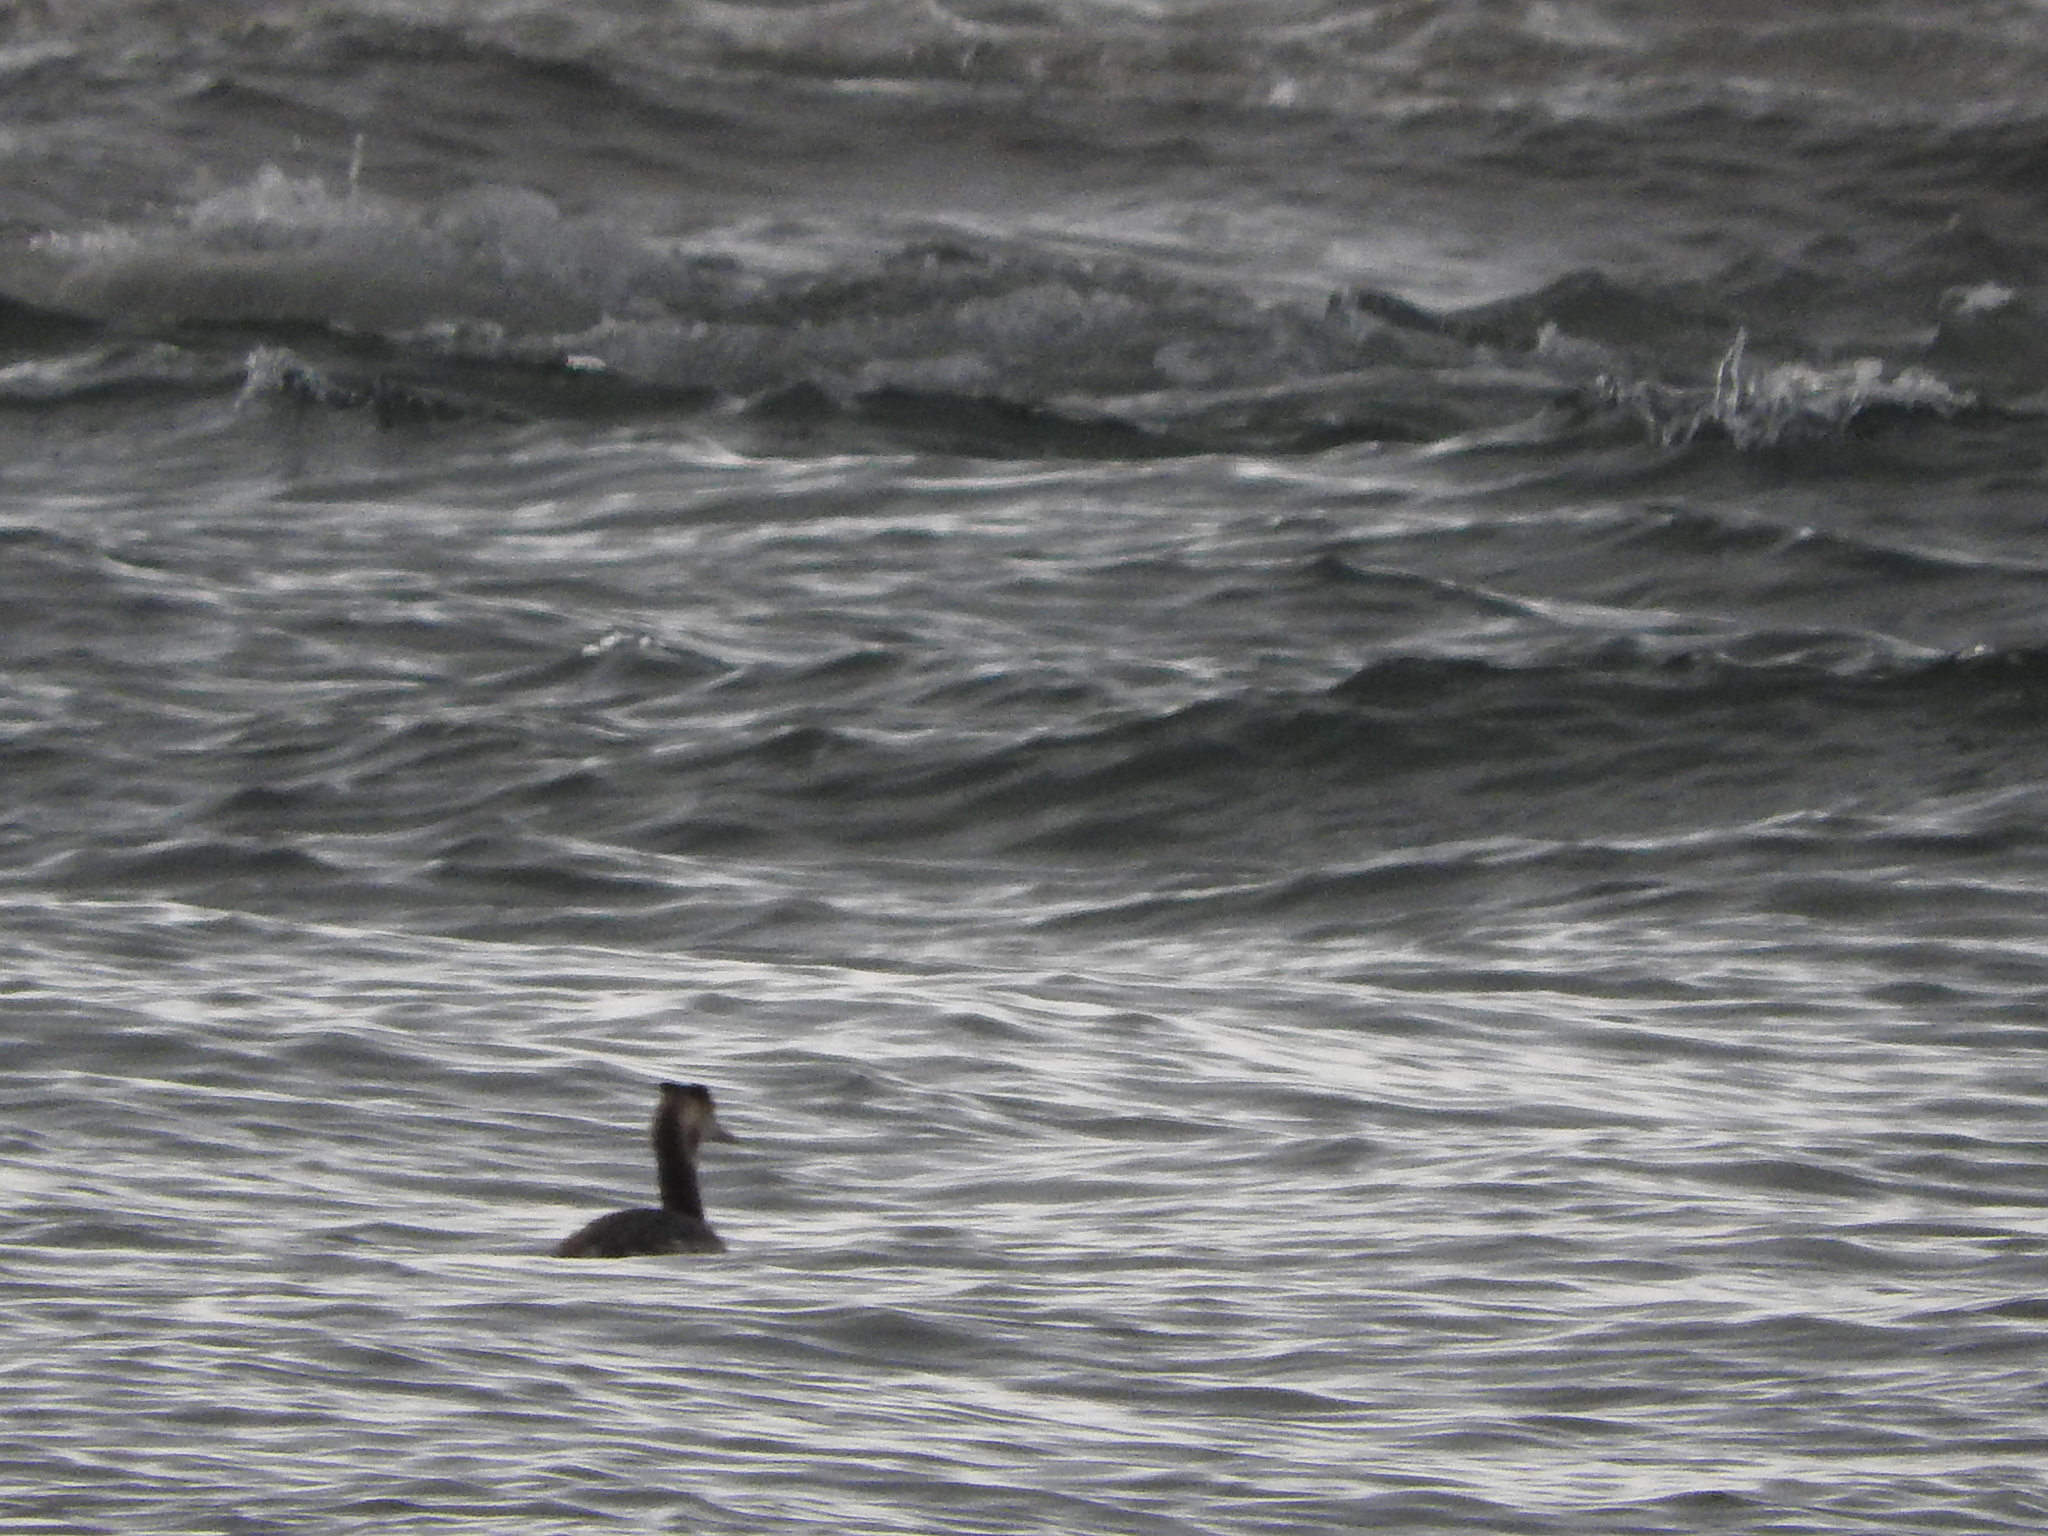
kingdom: Animalia
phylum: Chordata
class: Aves
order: Podicipediformes
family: Podicipedidae
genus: Podiceps
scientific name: Podiceps cristatus
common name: Great crested grebe
